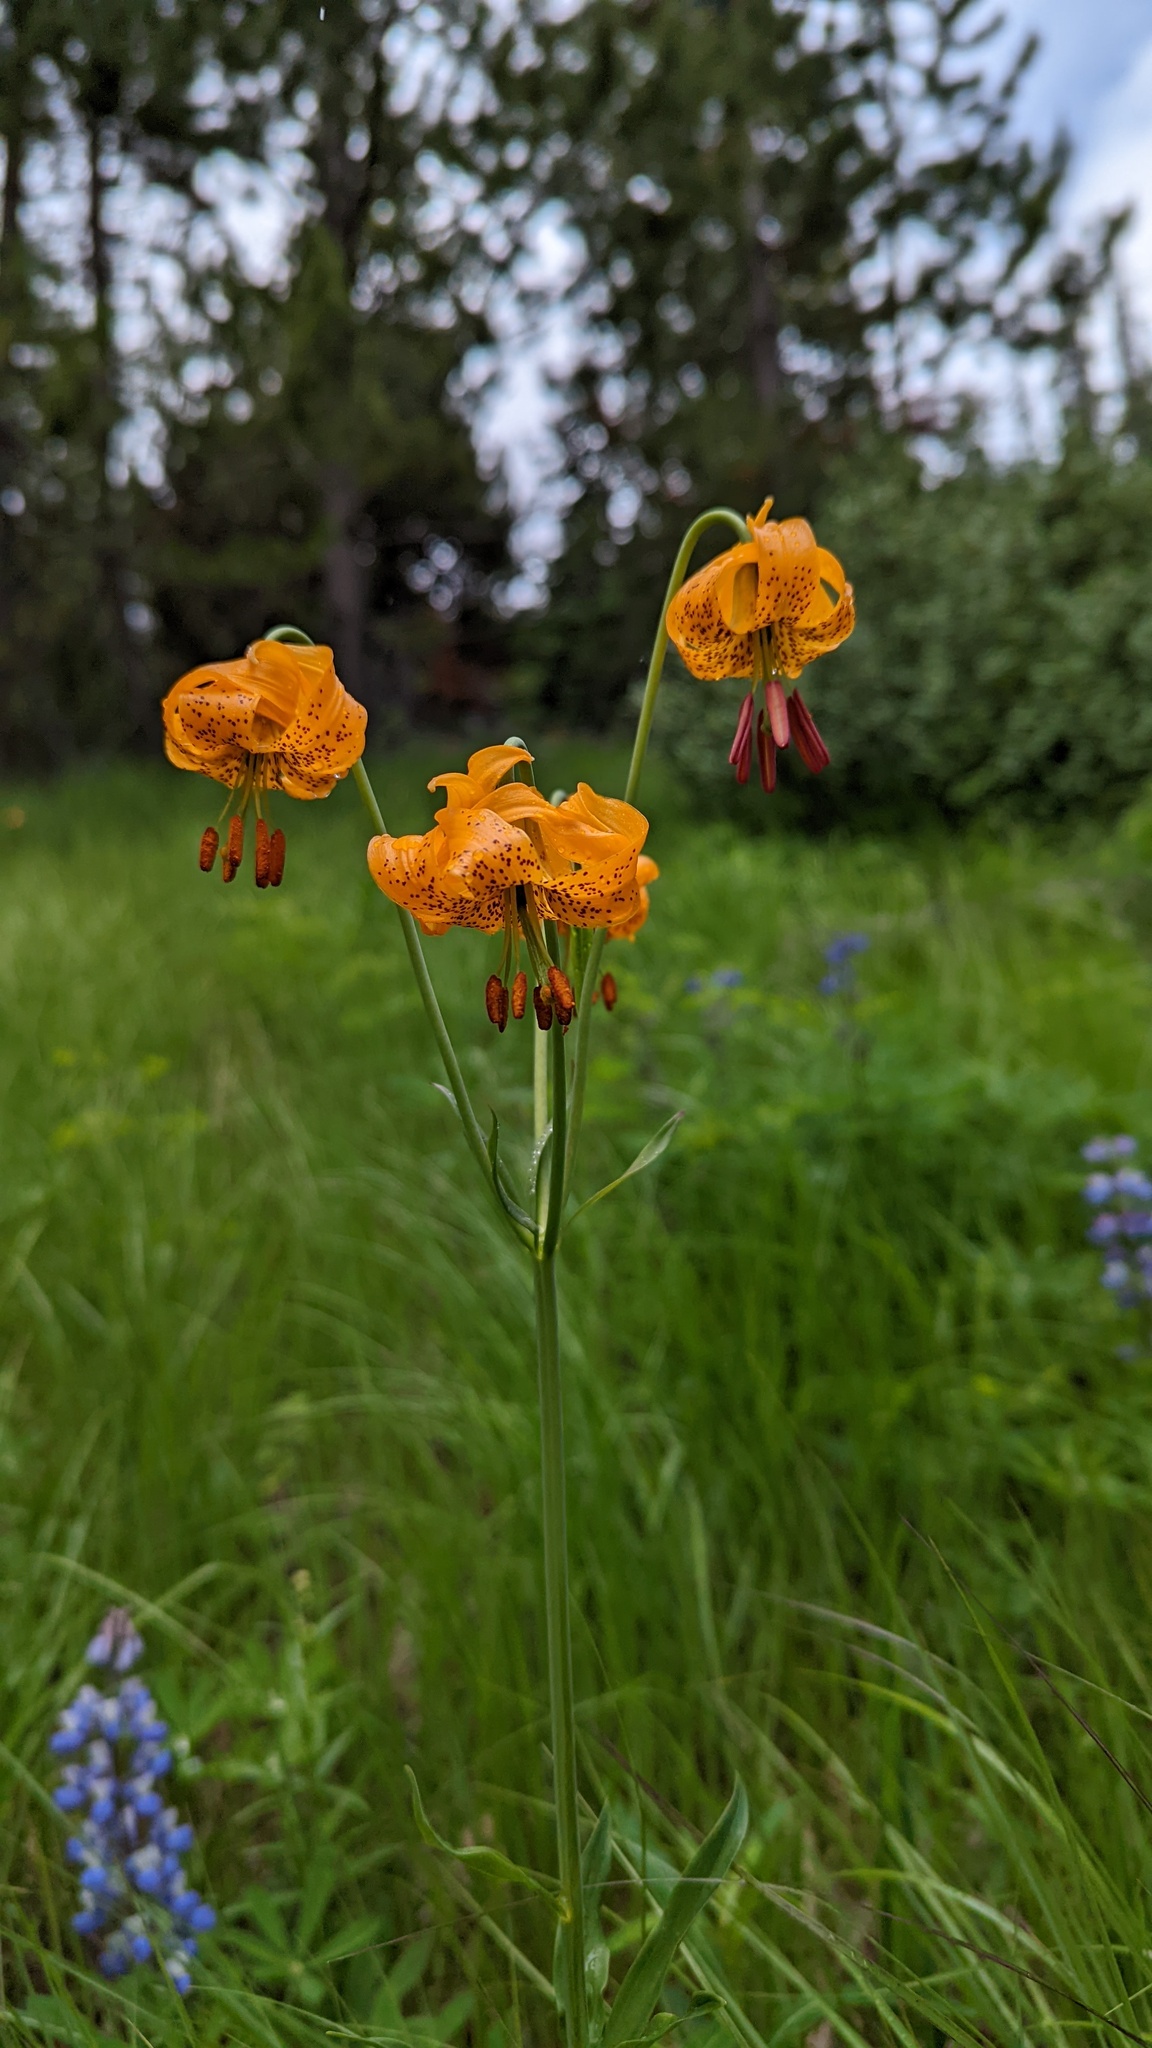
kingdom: Plantae
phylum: Tracheophyta
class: Liliopsida
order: Liliales
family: Liliaceae
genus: Lilium
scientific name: Lilium columbianum
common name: Columbia lily
